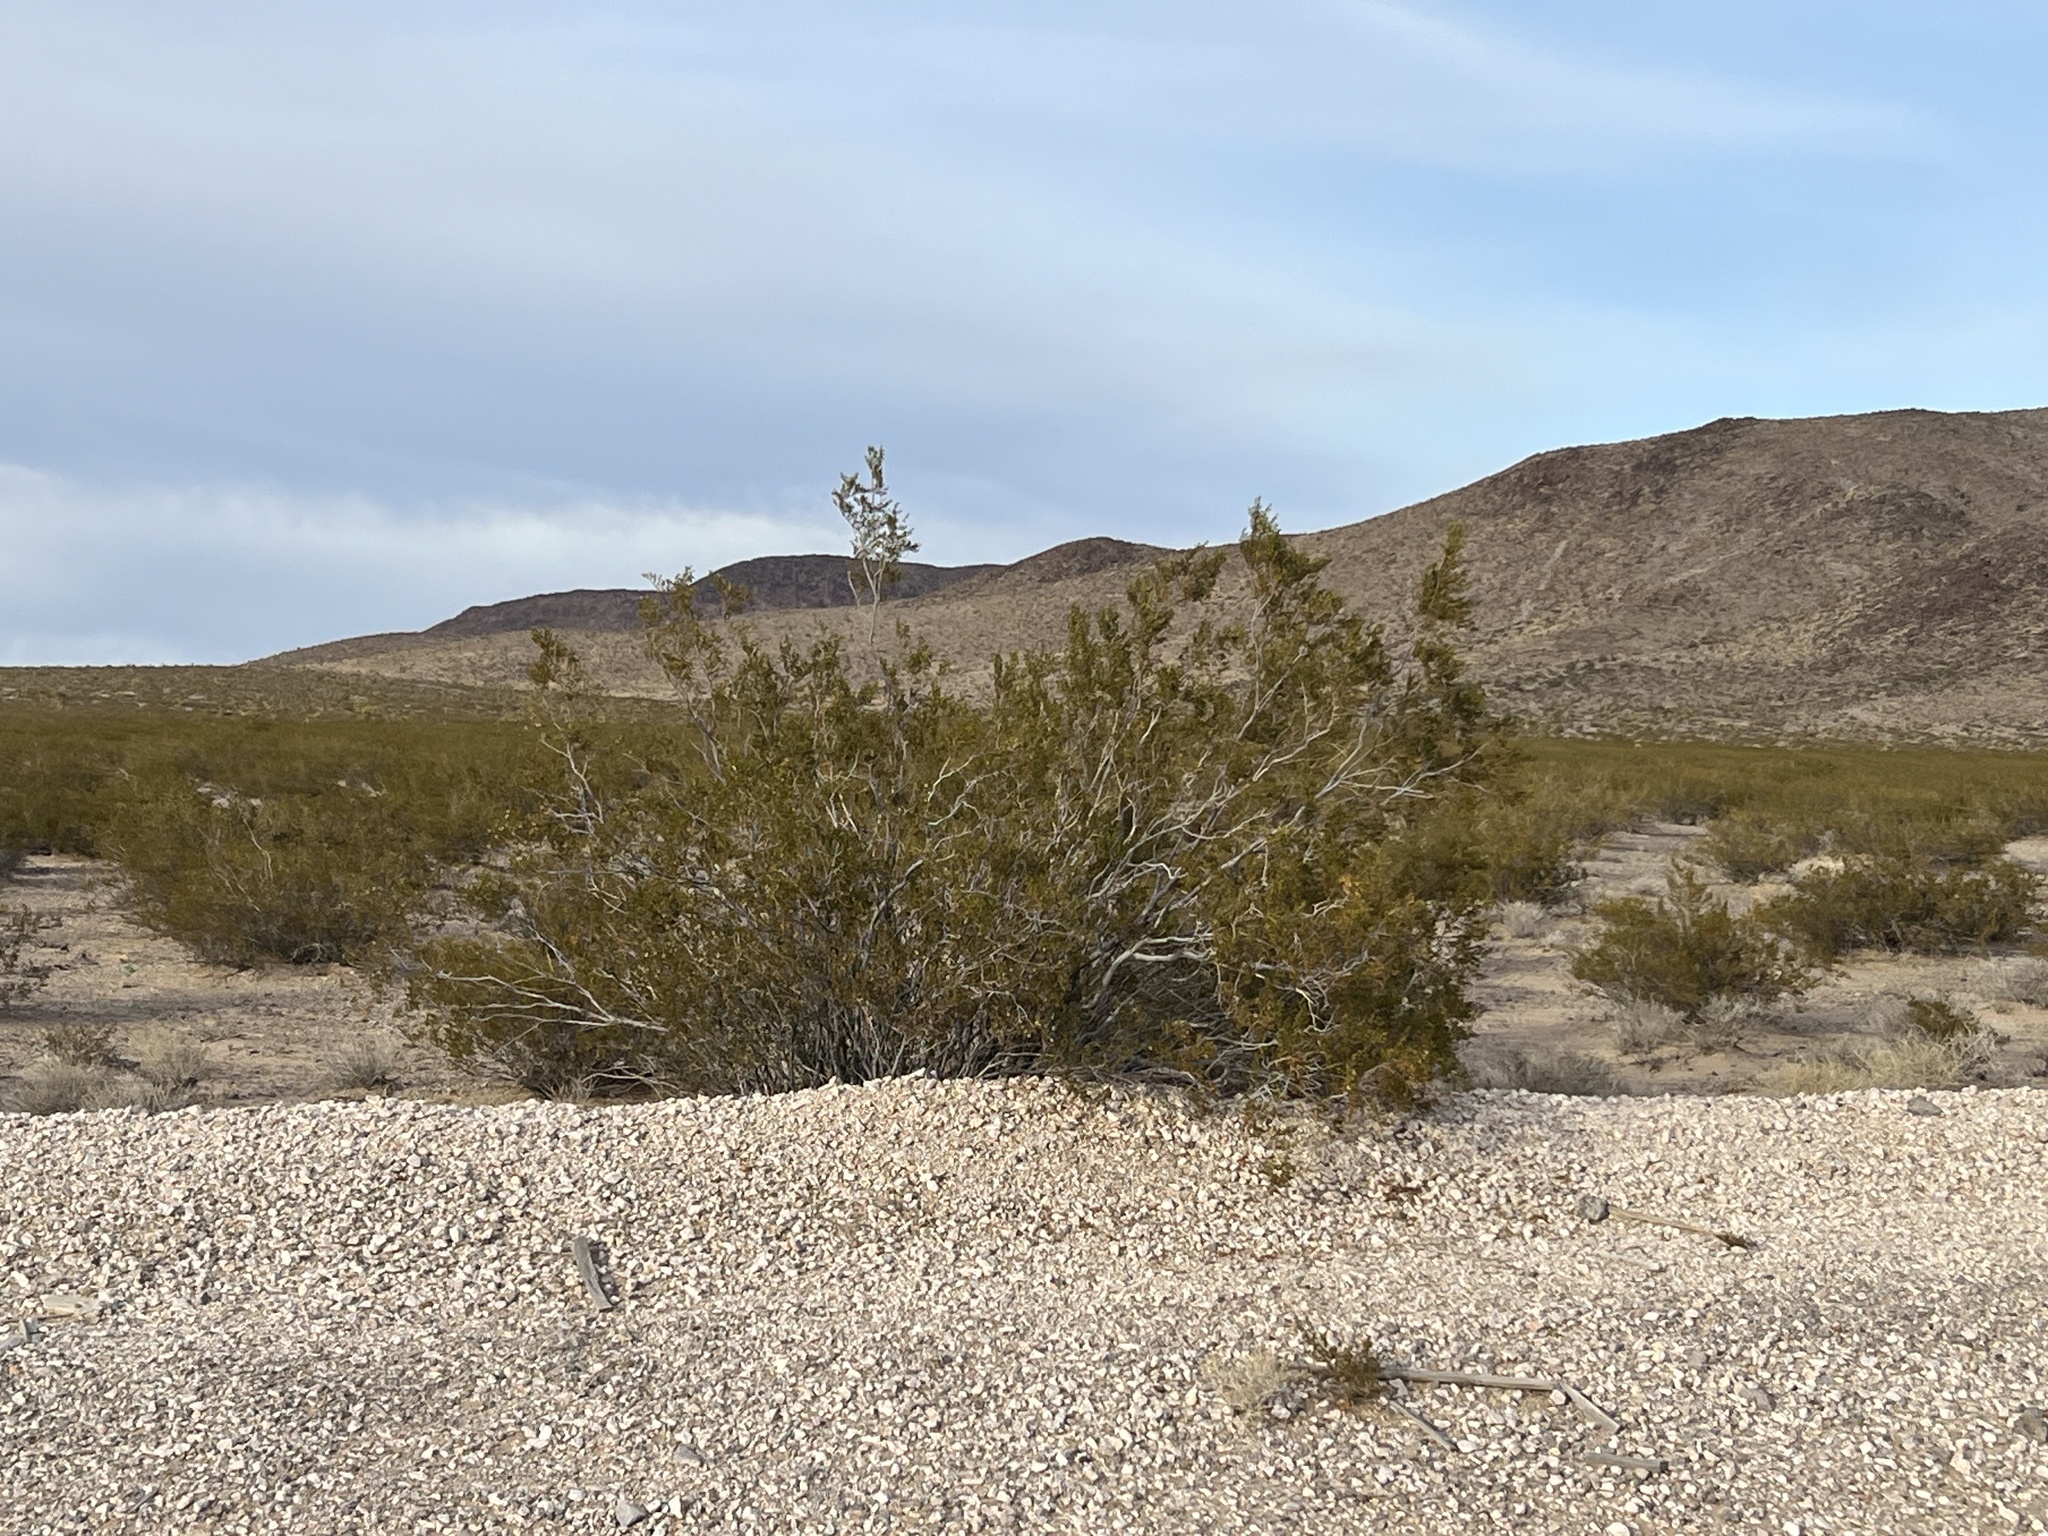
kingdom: Plantae
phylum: Tracheophyta
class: Magnoliopsida
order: Zygophyllales
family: Zygophyllaceae
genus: Larrea
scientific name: Larrea tridentata
